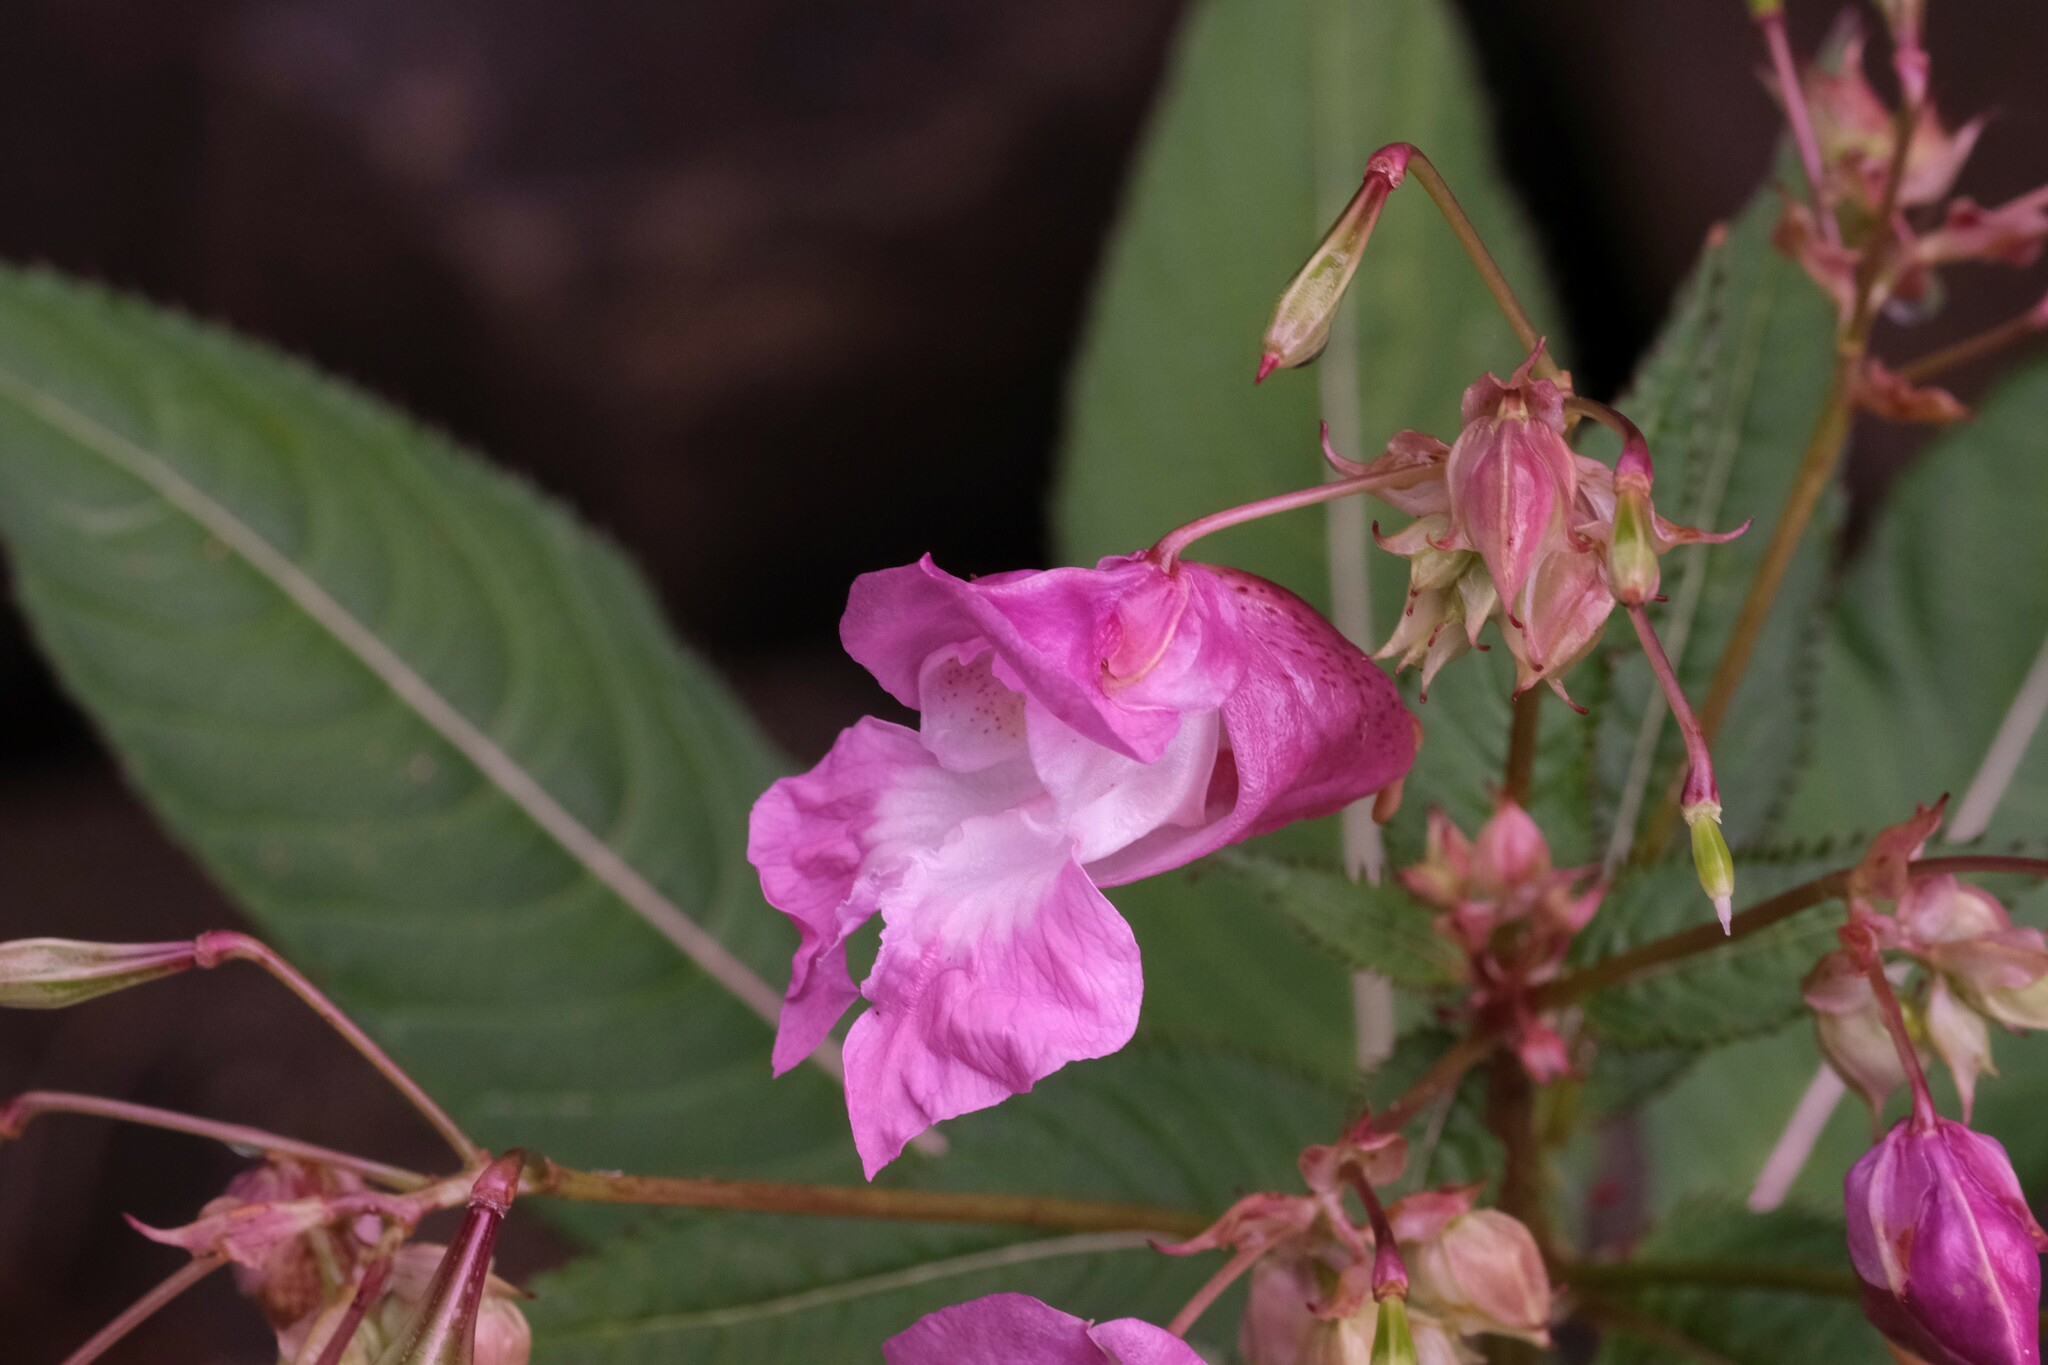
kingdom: Plantae
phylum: Tracheophyta
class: Magnoliopsida
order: Ericales
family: Balsaminaceae
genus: Impatiens
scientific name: Impatiens glandulifera
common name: Himalayan balsam
